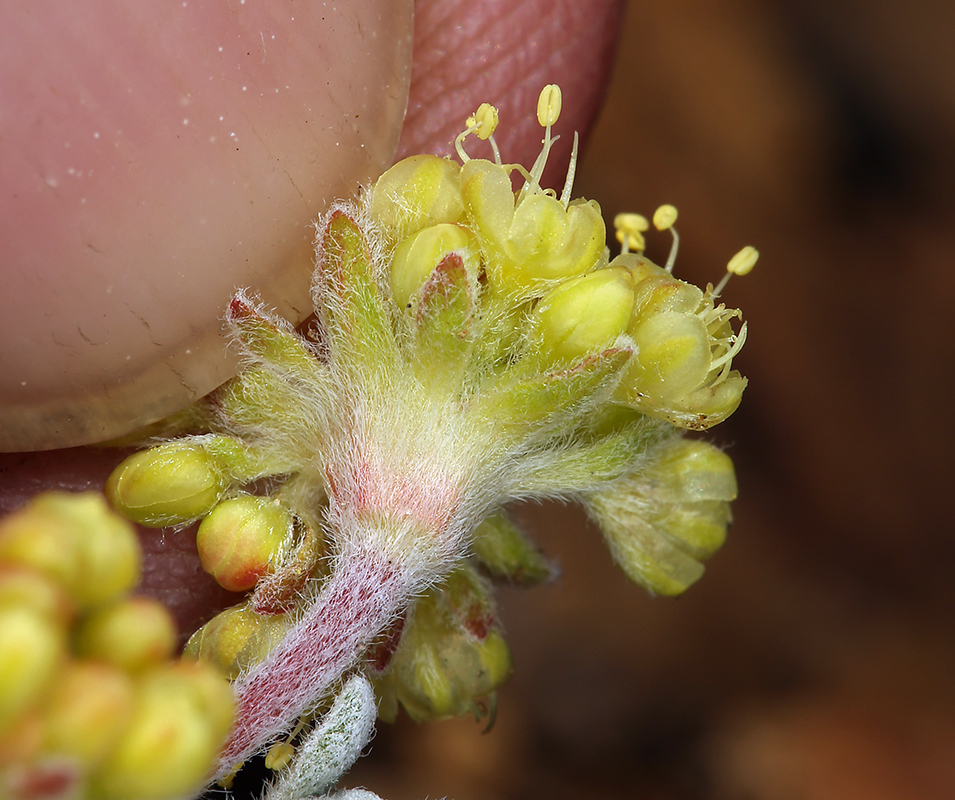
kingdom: Plantae
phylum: Tracheophyta
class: Magnoliopsida
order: Caryophyllales
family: Polygonaceae
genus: Eriogonum
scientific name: Eriogonum caespitosum
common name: Matted wild buckwheat
